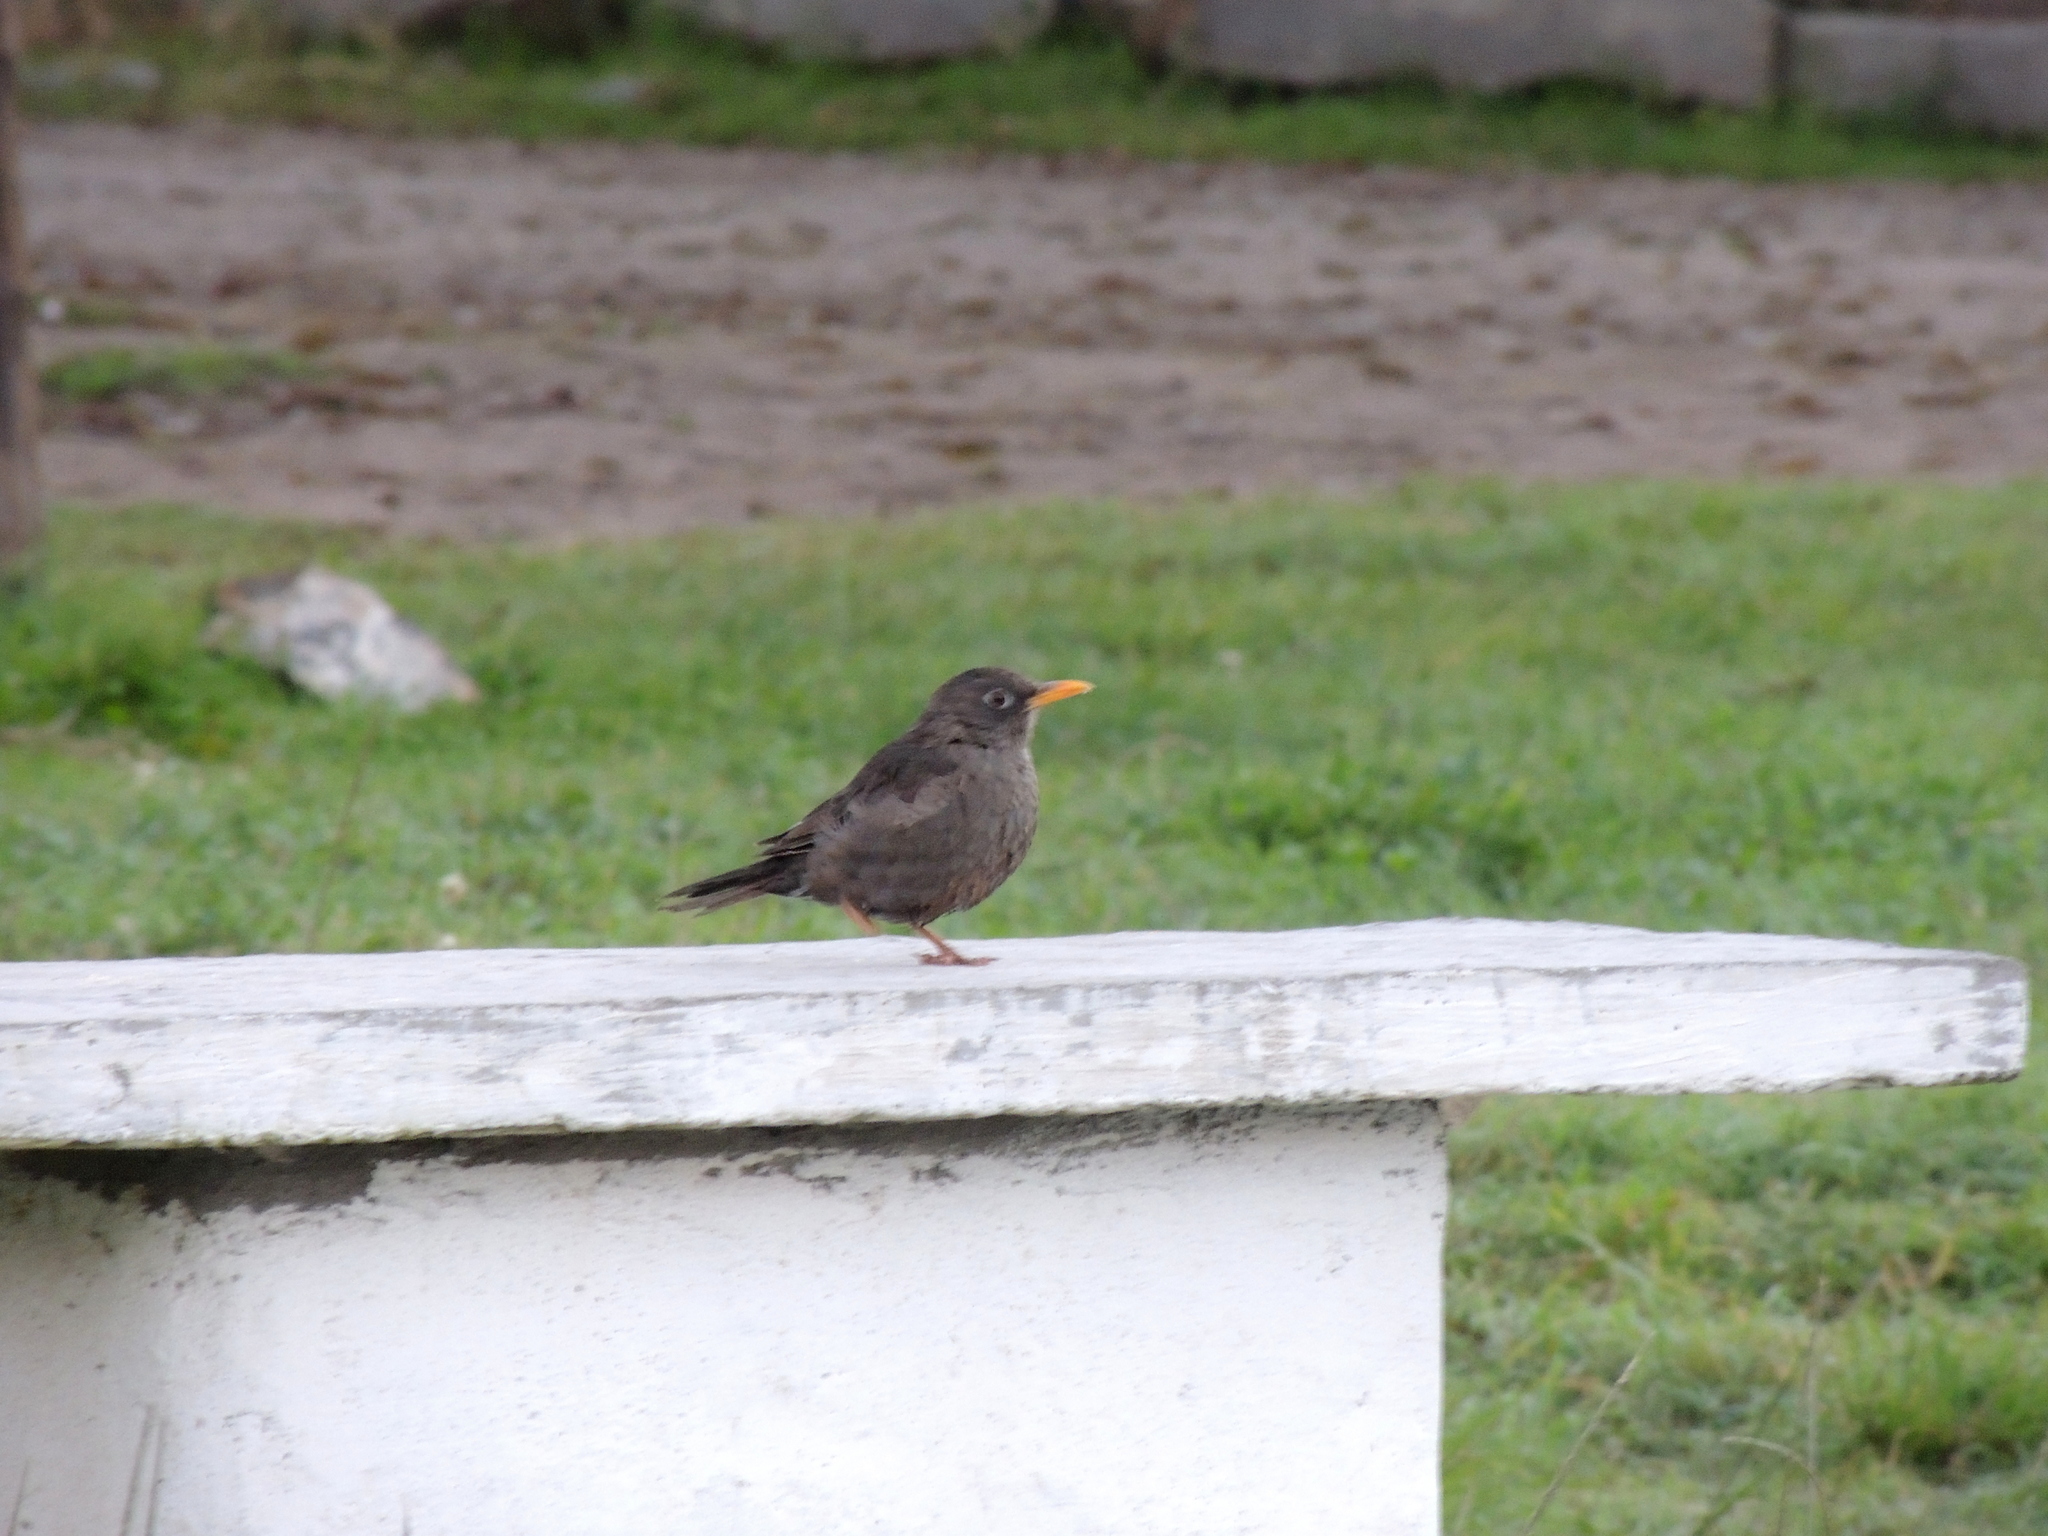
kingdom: Animalia
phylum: Chordata
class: Aves
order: Passeriformes
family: Turdidae
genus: Turdus
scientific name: Turdus chiguanco
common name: Chiguanco thrush
